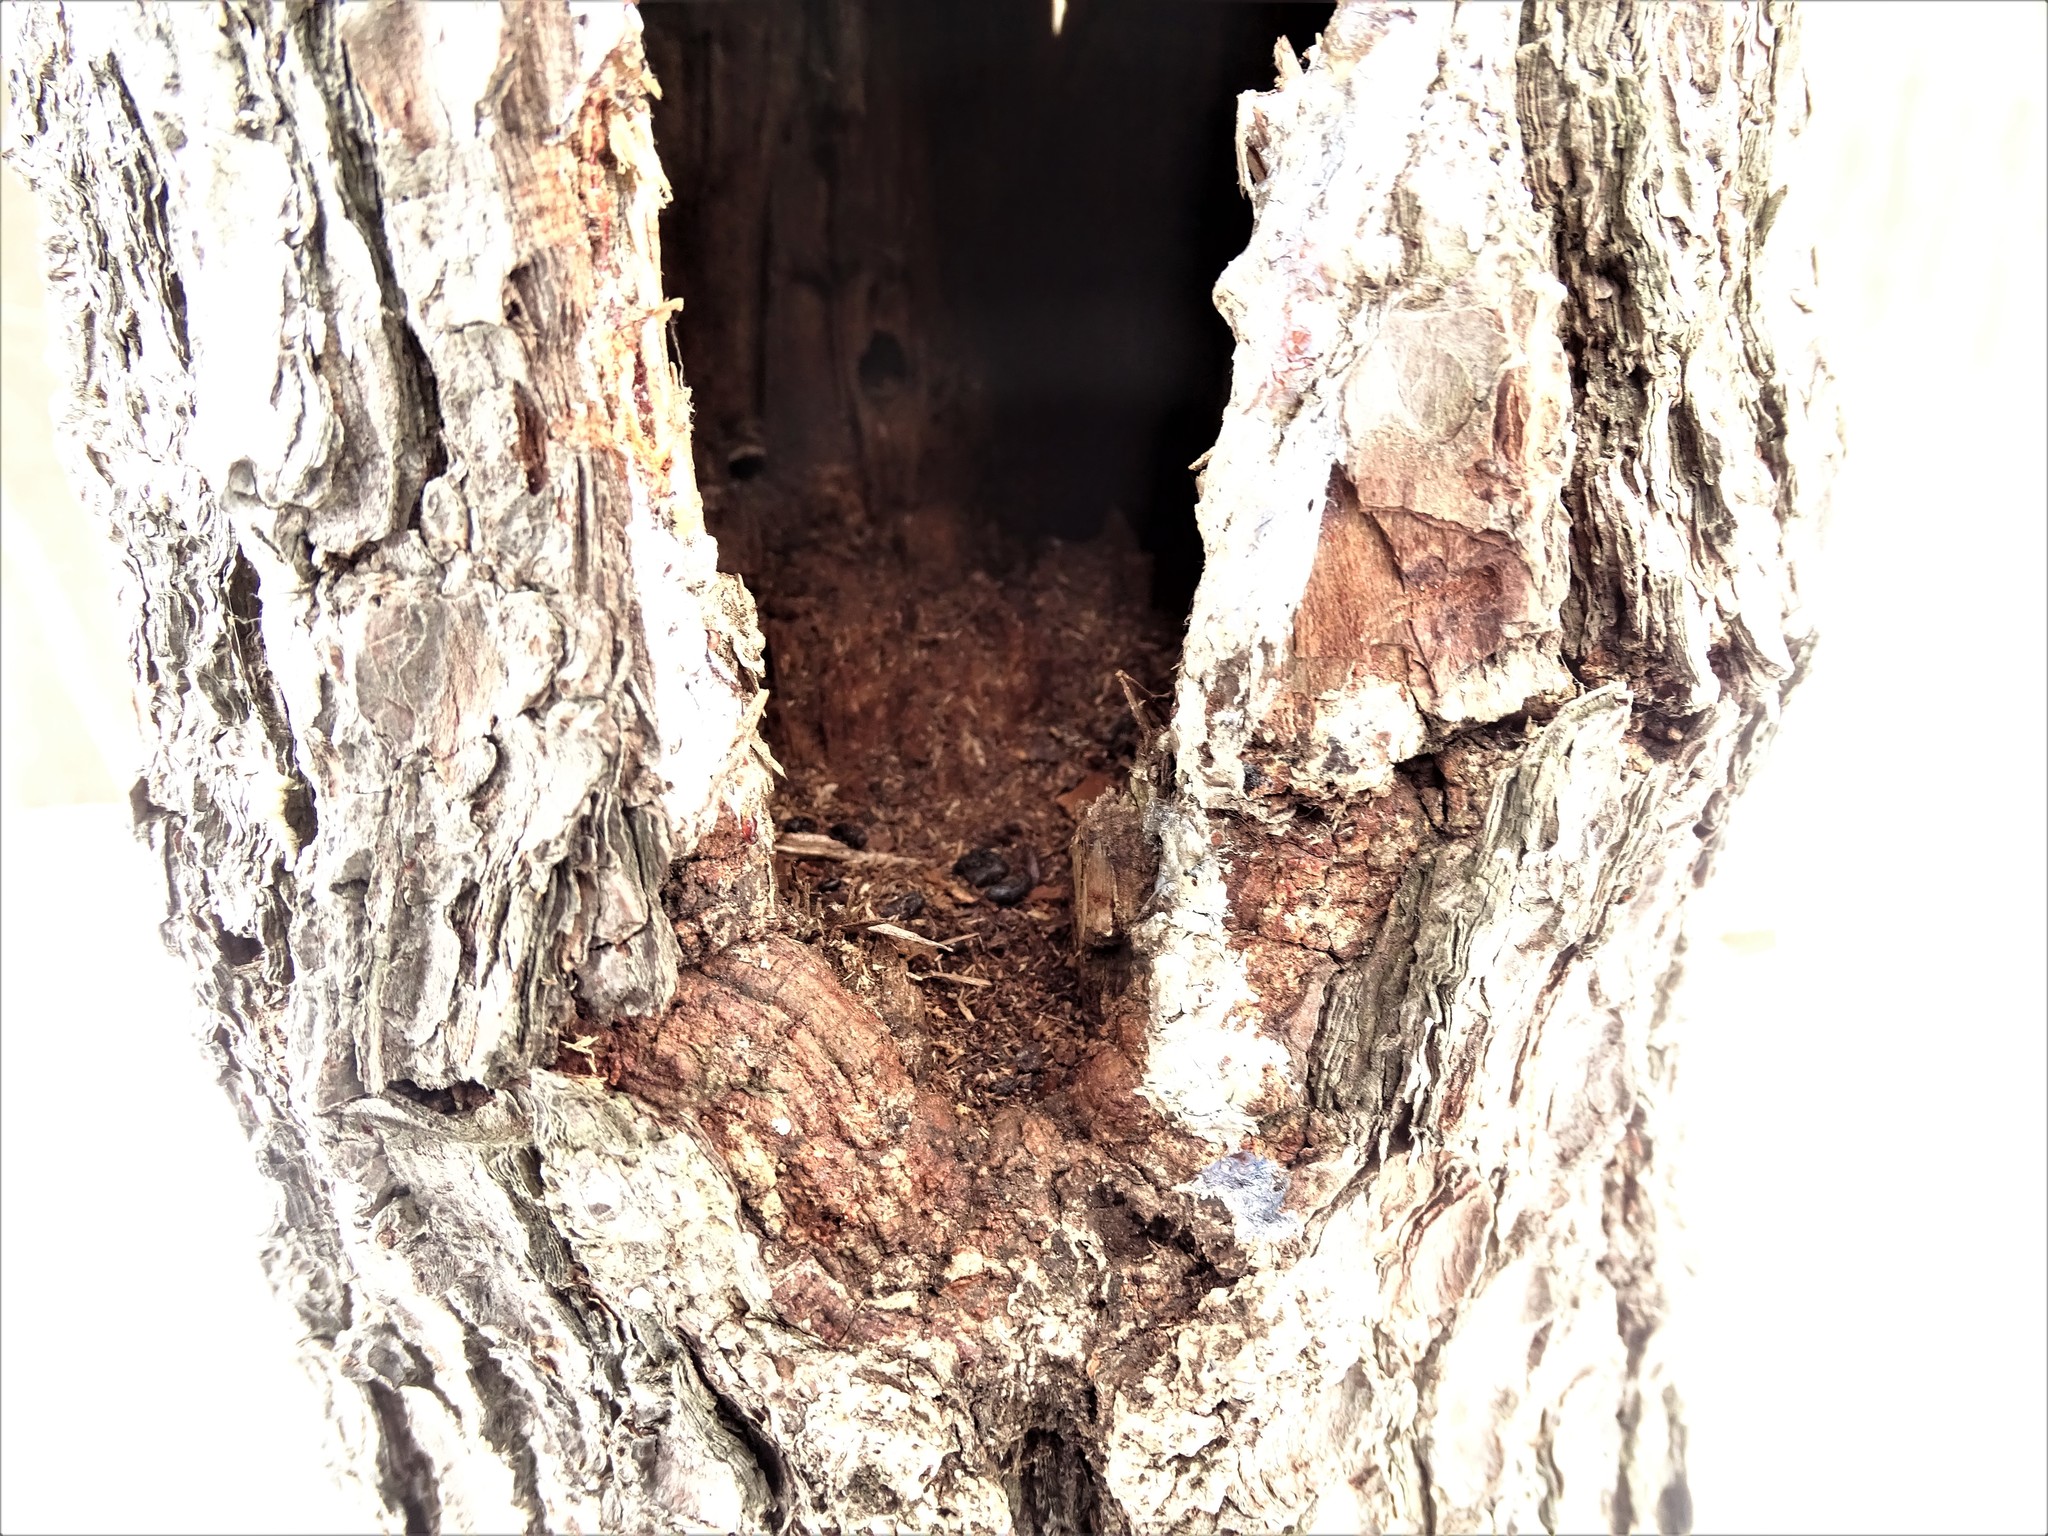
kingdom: Animalia
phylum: Chordata
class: Aves
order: Piciformes
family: Picidae
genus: Dryocopus
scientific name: Dryocopus pileatus
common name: Pileated woodpecker
